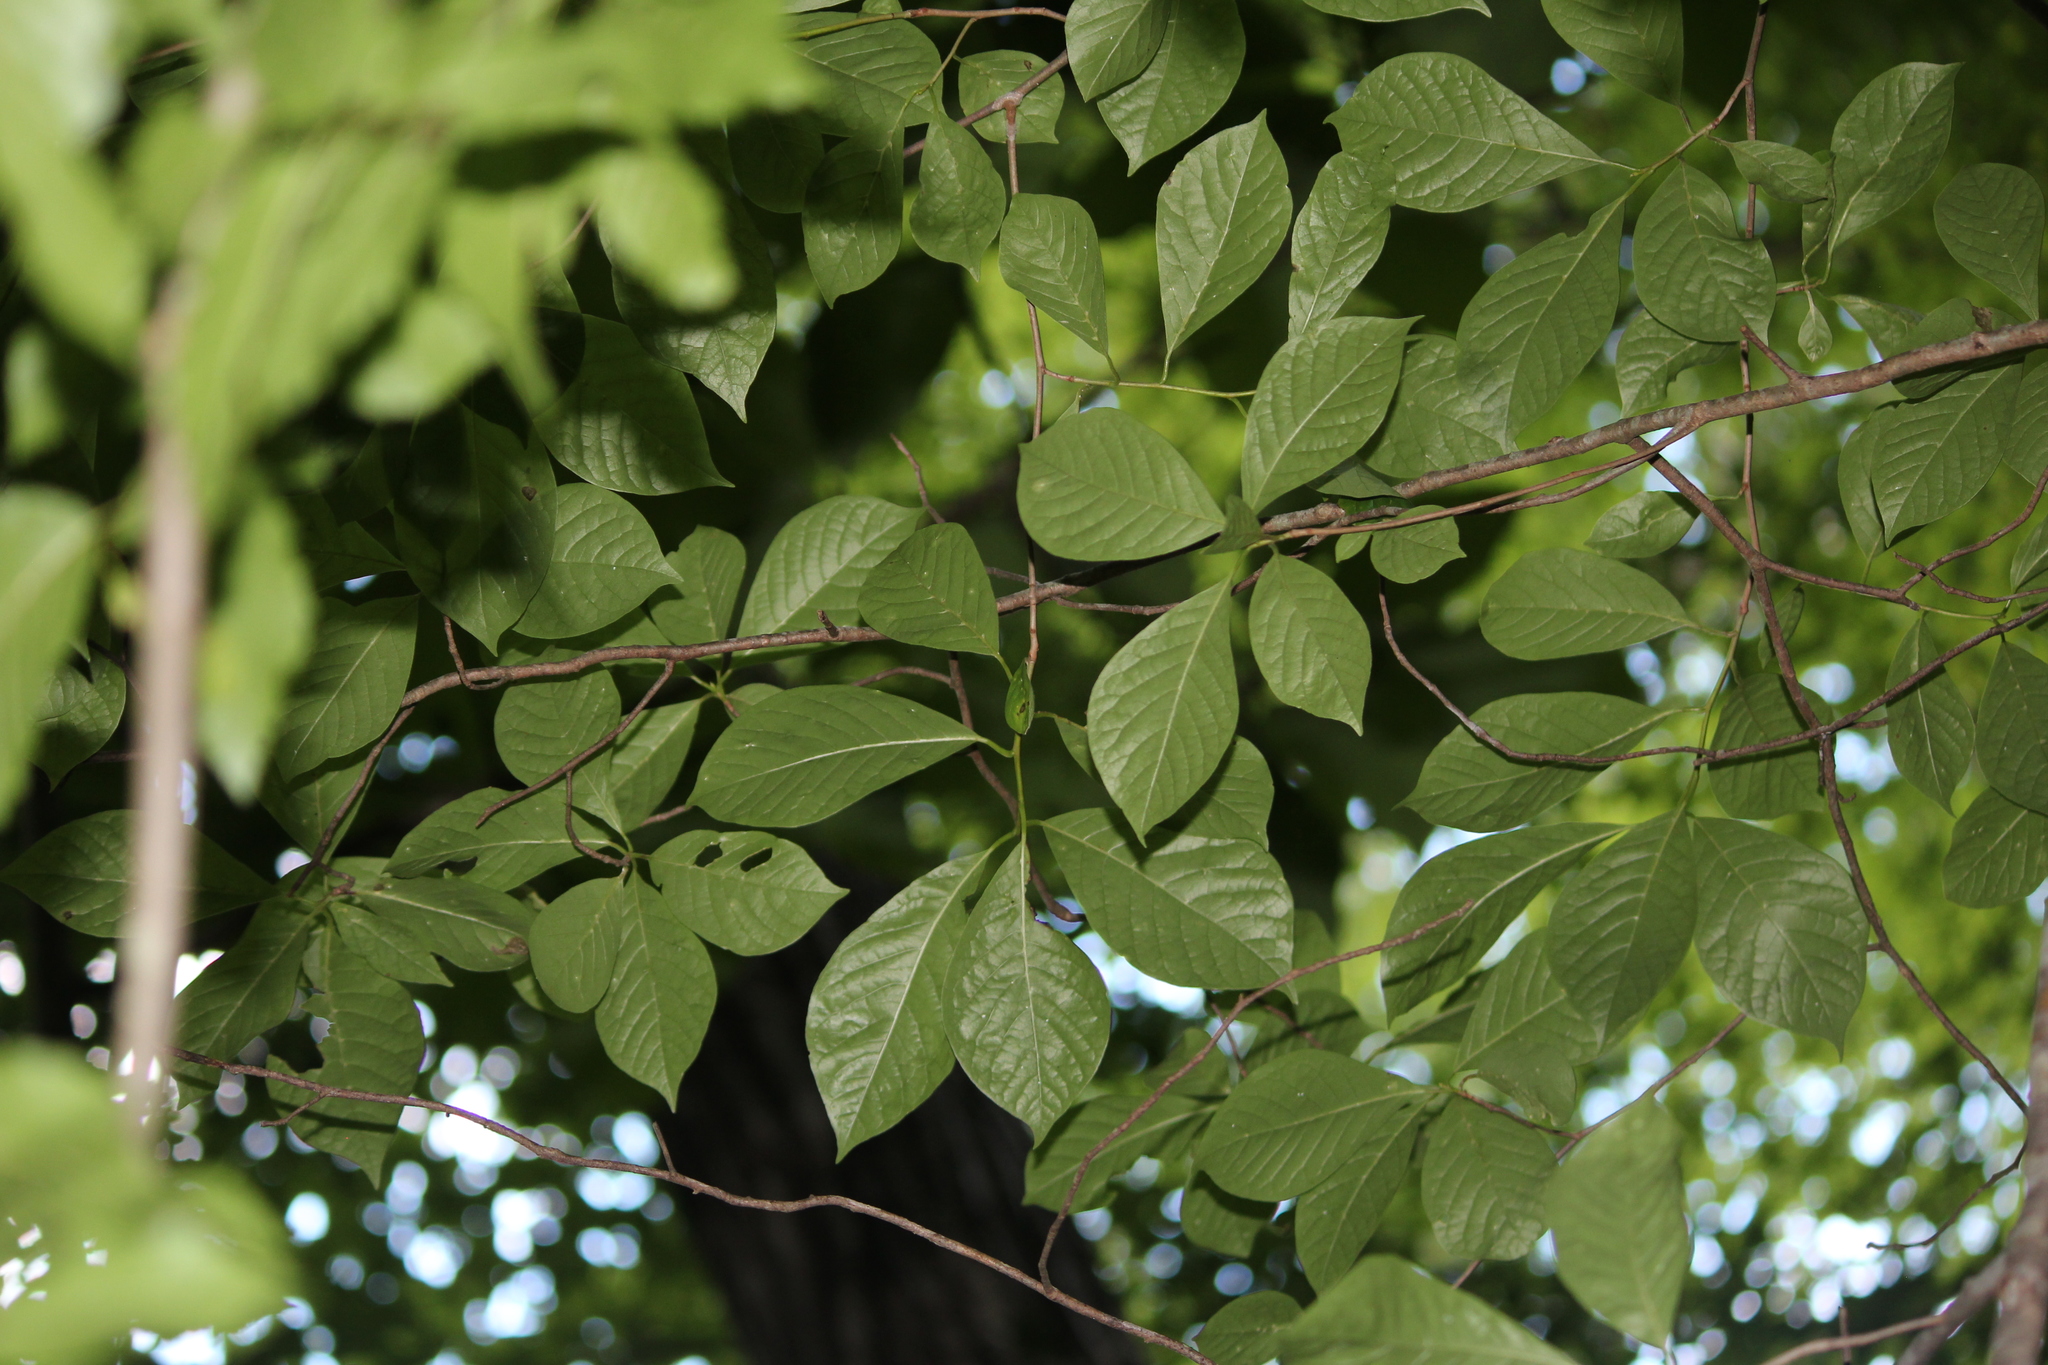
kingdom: Plantae
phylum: Tracheophyta
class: Magnoliopsida
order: Cornales
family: Nyssaceae
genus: Nyssa
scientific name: Nyssa sylvatica
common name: Black tupelo
